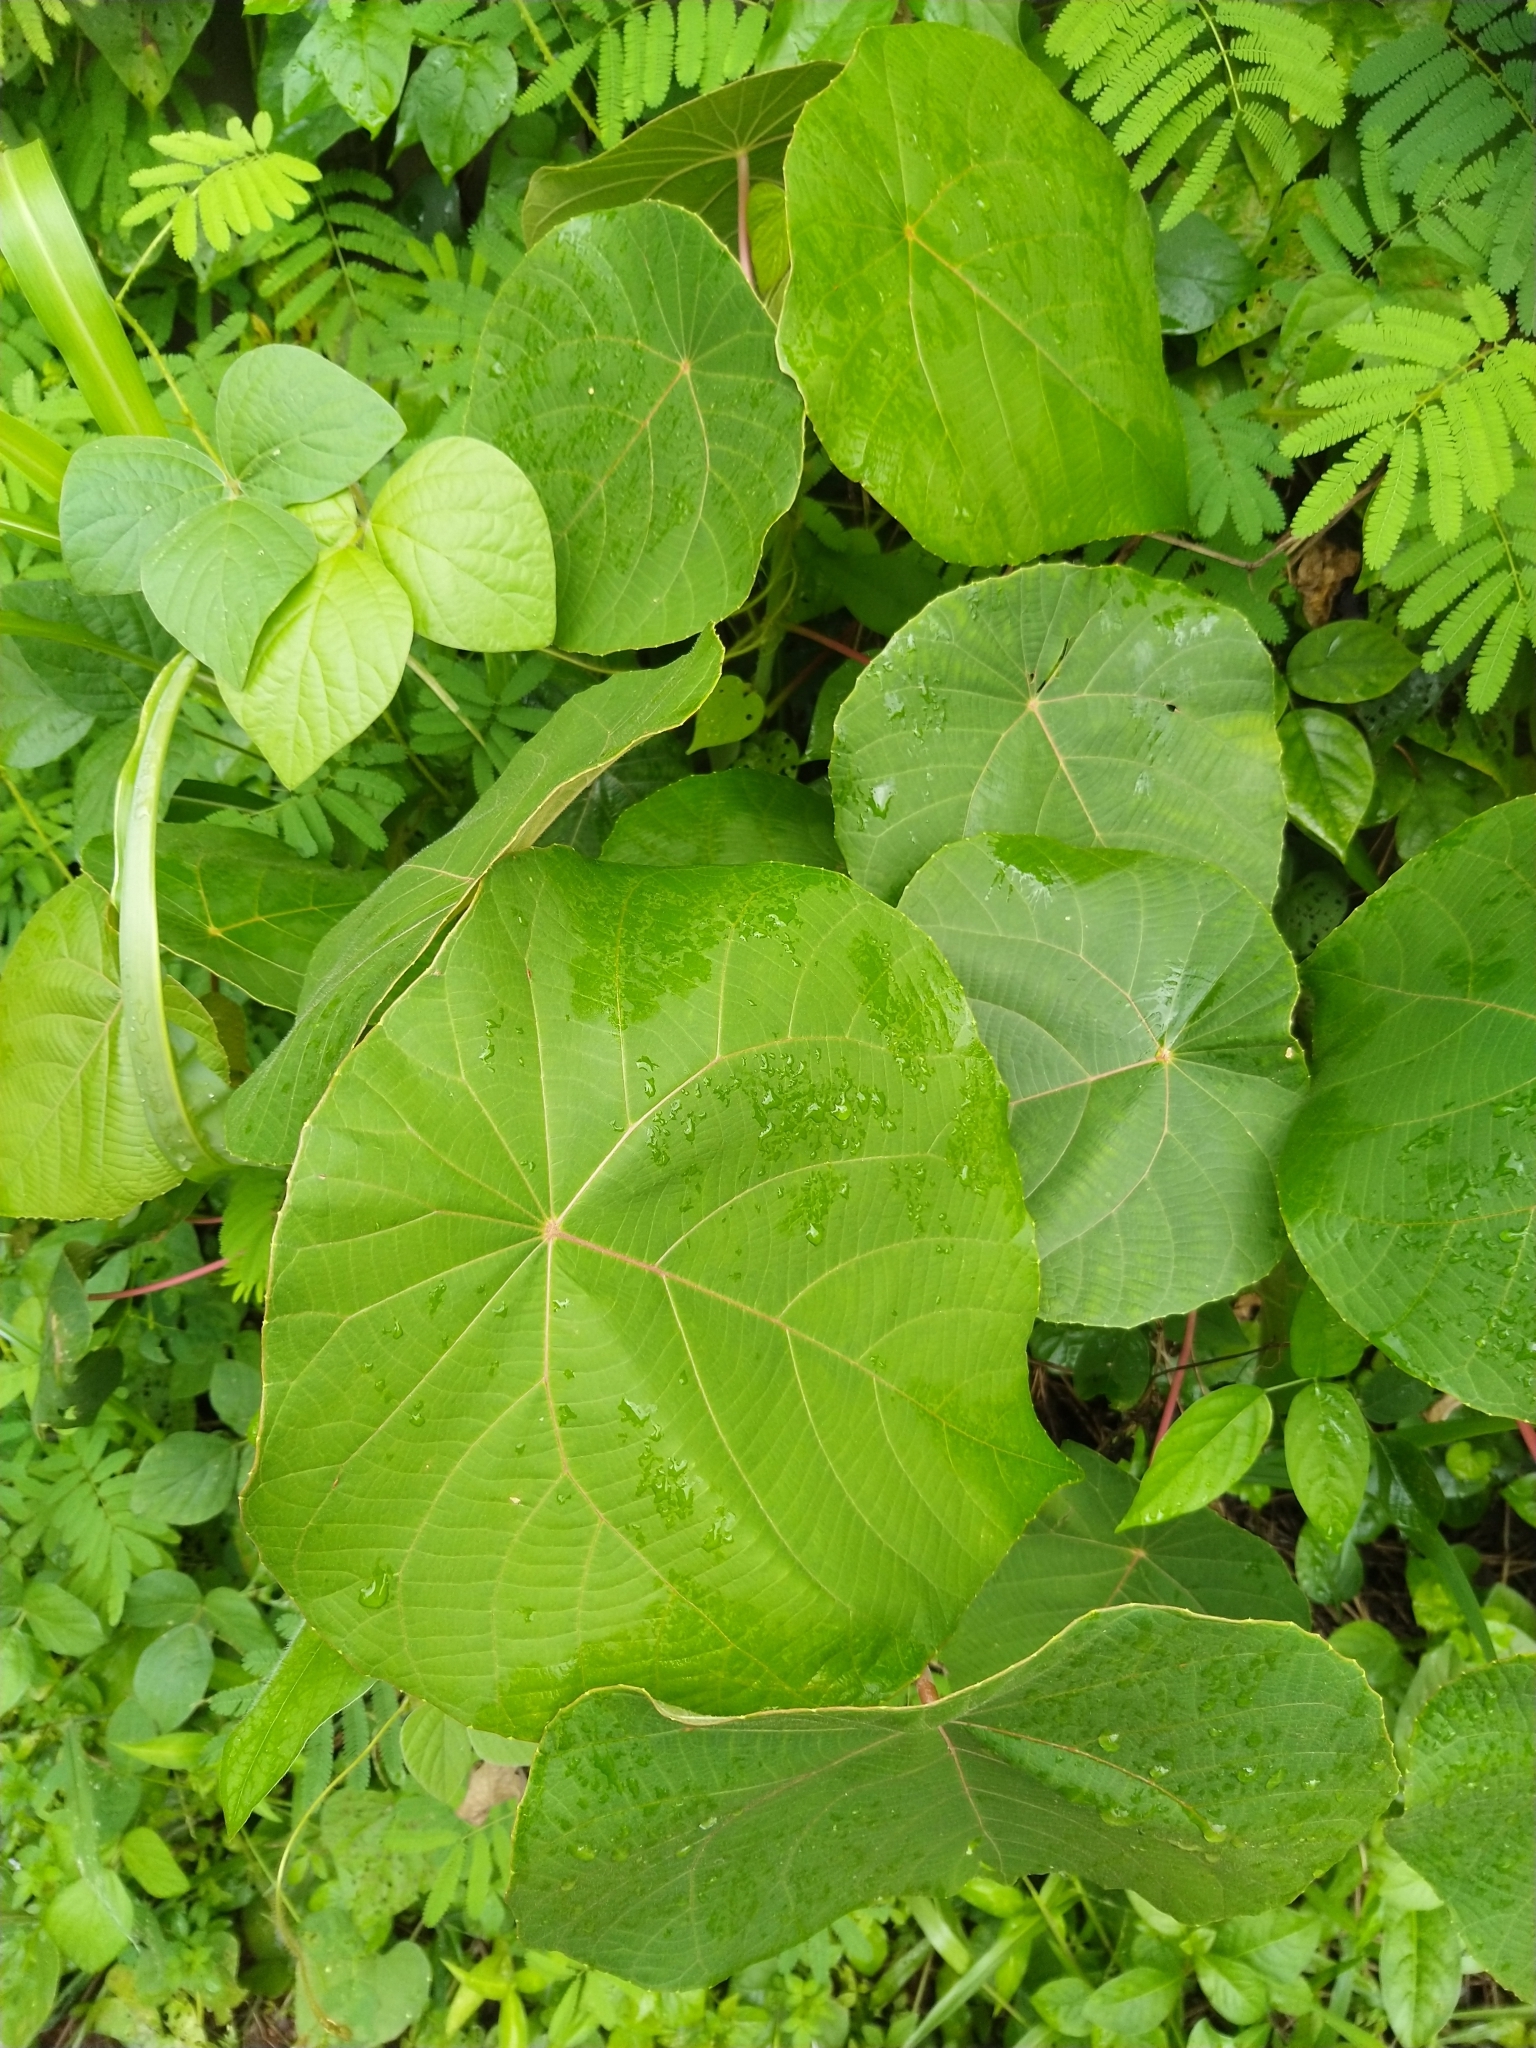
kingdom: Plantae
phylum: Tracheophyta
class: Magnoliopsida
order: Malpighiales
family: Euphorbiaceae
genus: Macaranga
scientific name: Macaranga peltata
